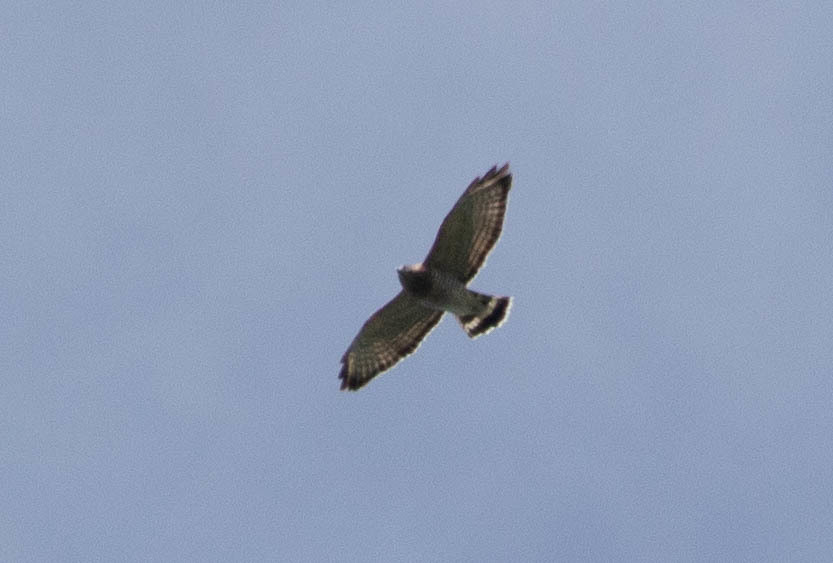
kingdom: Animalia
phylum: Chordata
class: Aves
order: Accipitriformes
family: Accipitridae
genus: Buteo
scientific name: Buteo platypterus
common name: Broad-winged hawk
